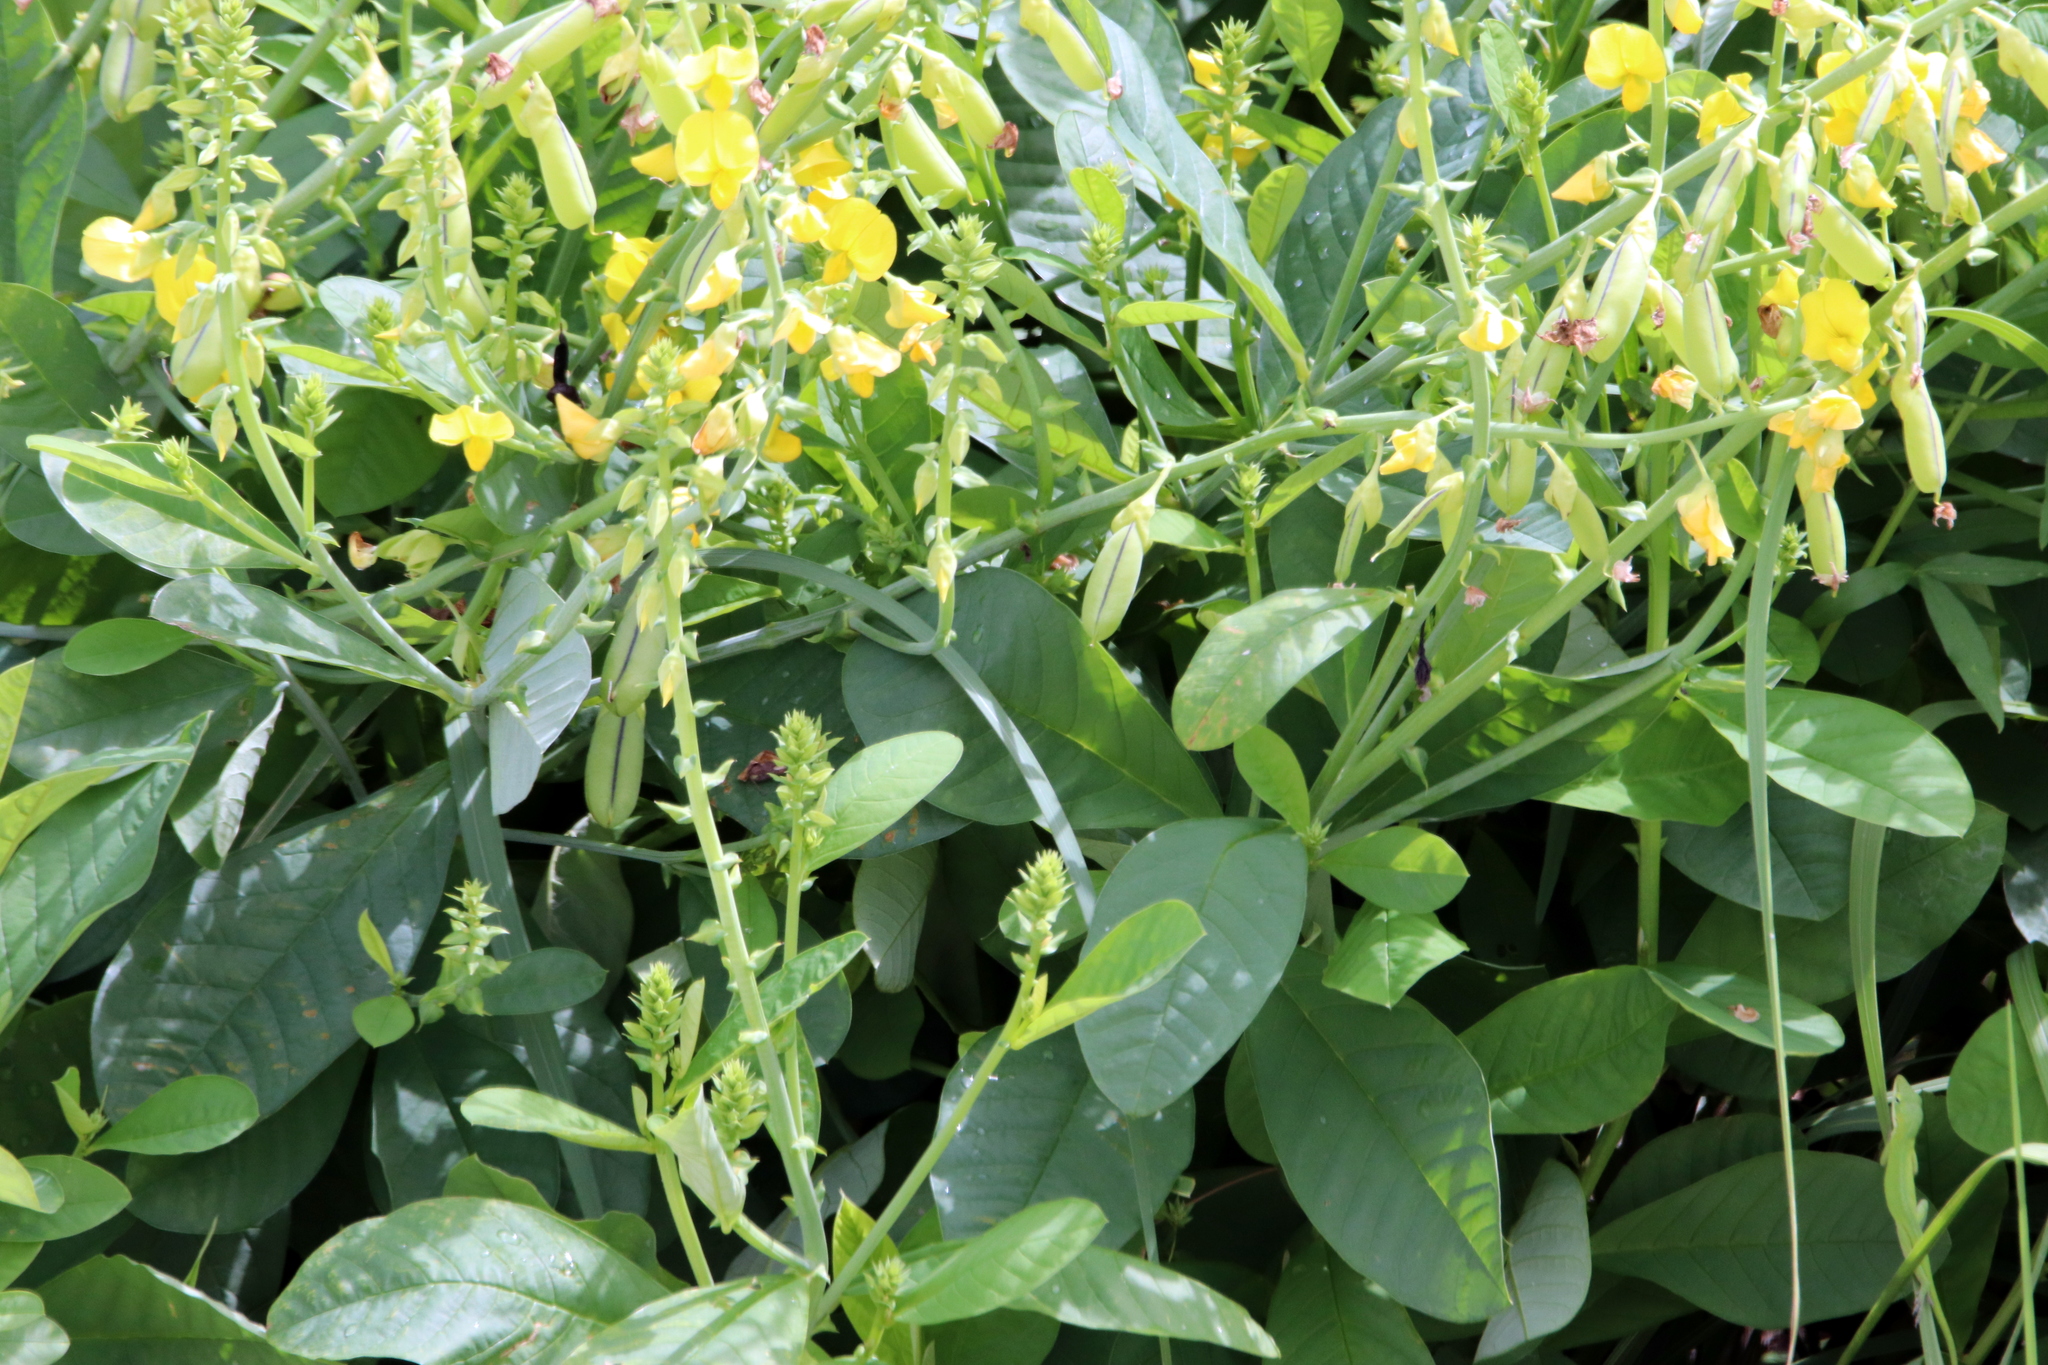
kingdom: Plantae
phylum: Tracheophyta
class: Magnoliopsida
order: Fabales
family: Fabaceae
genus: Crotalaria
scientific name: Crotalaria spectabilis
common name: Showy rattlebox
